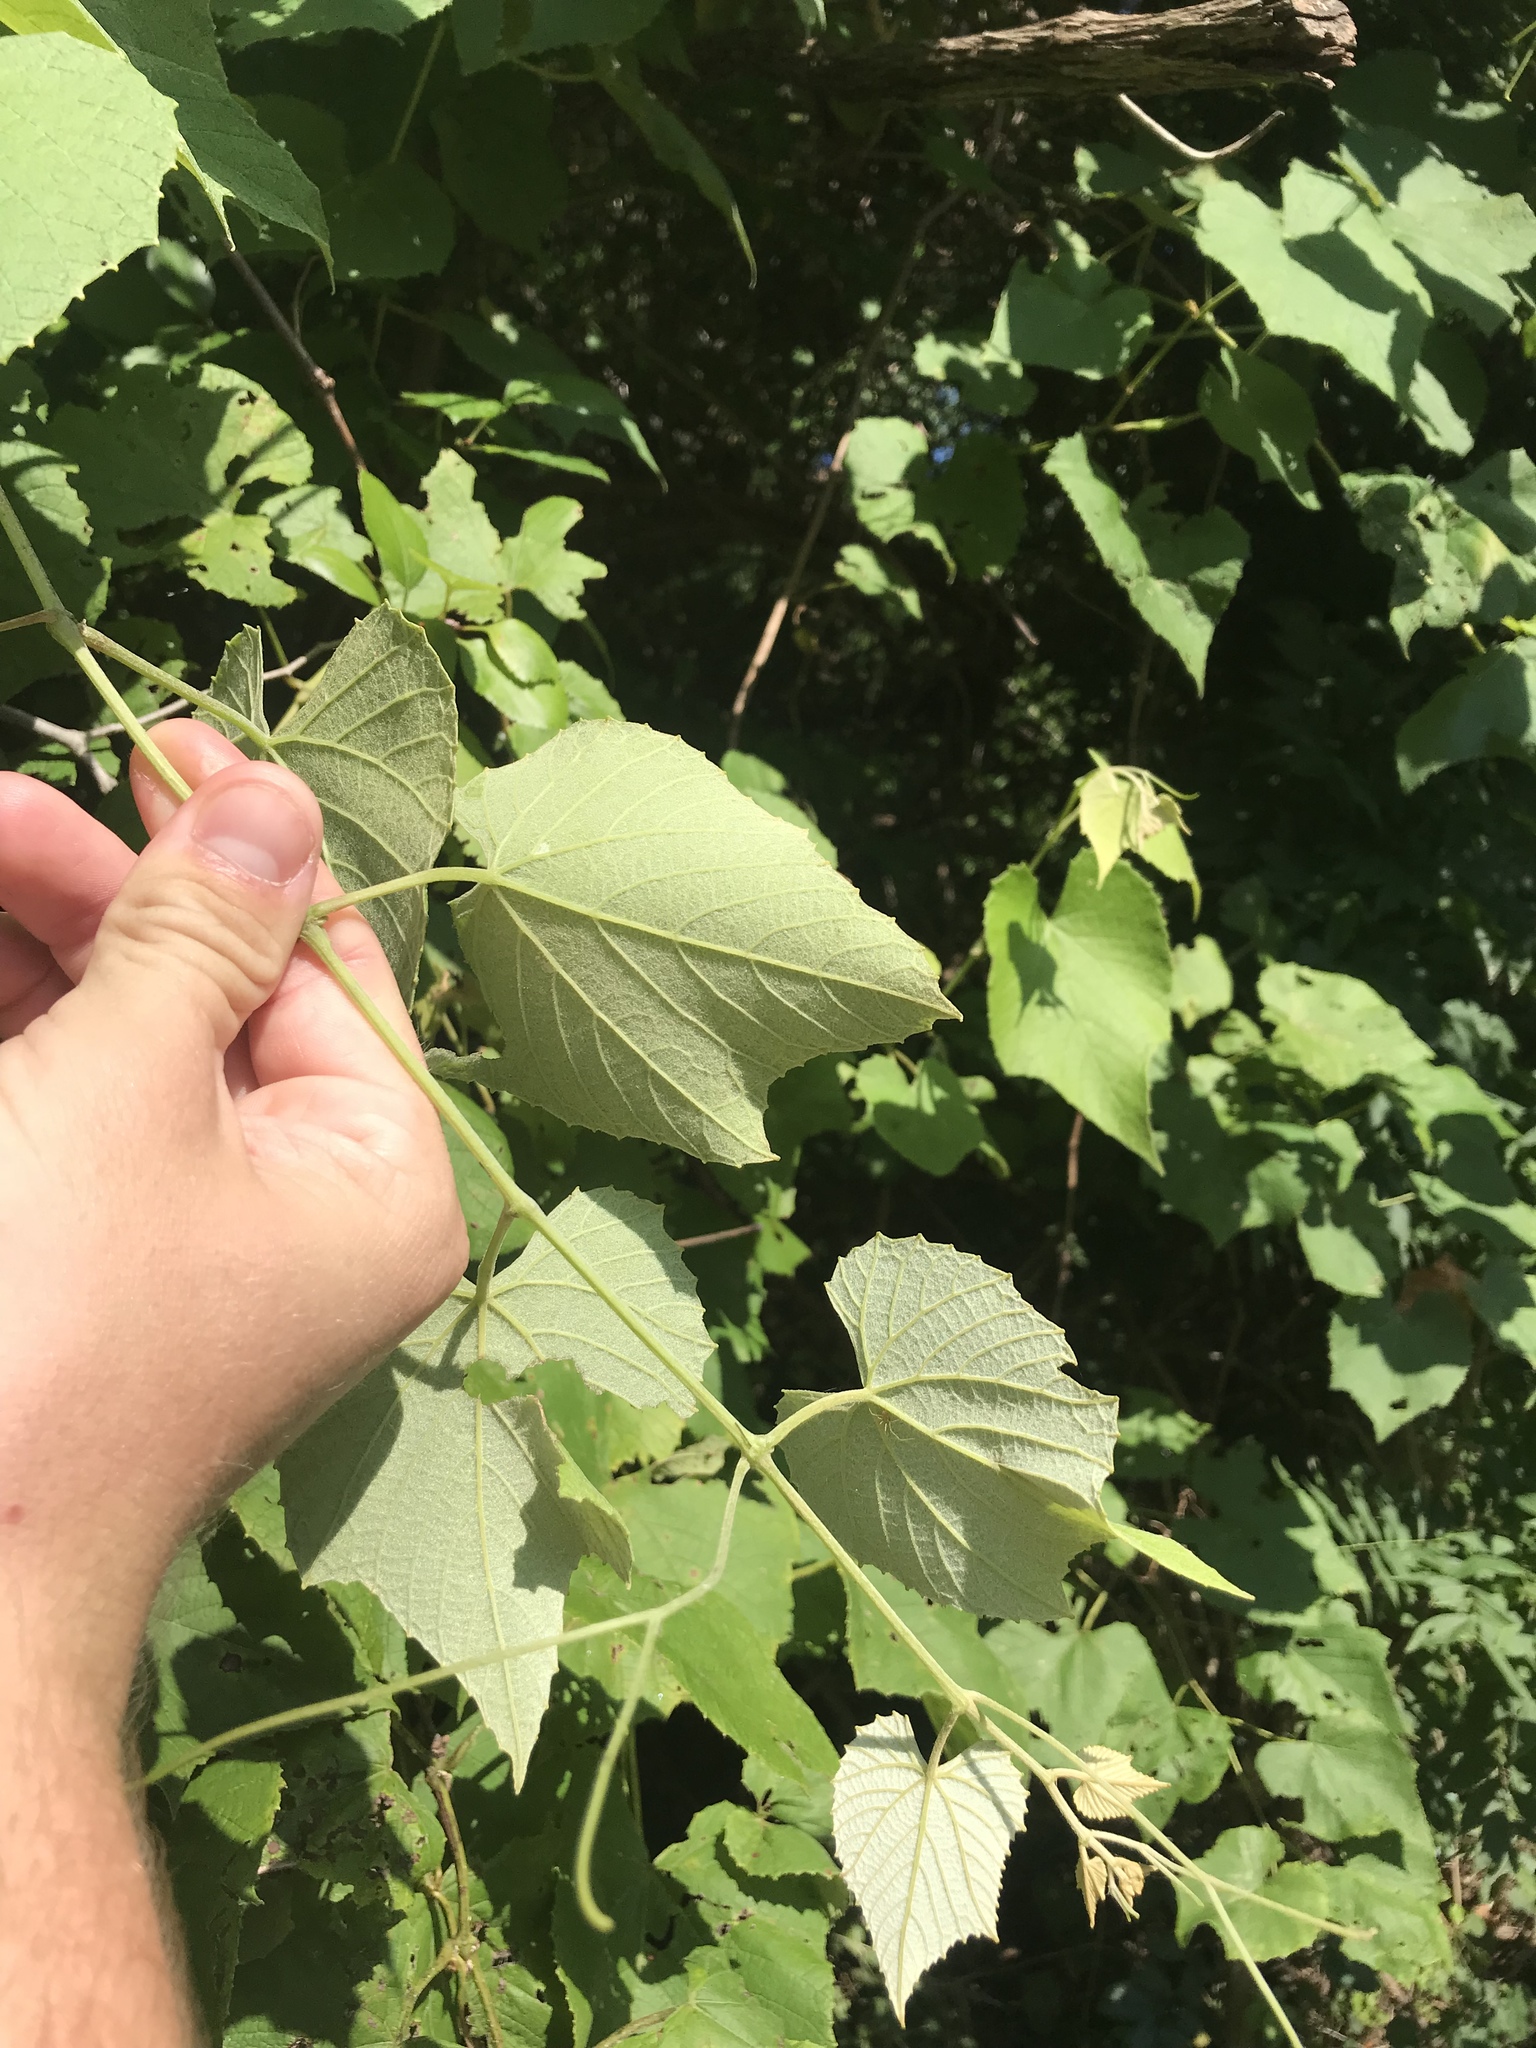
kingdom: Plantae
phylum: Tracheophyta
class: Magnoliopsida
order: Vitales
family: Vitaceae
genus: Vitis
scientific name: Vitis cinerea
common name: Ashy grape
